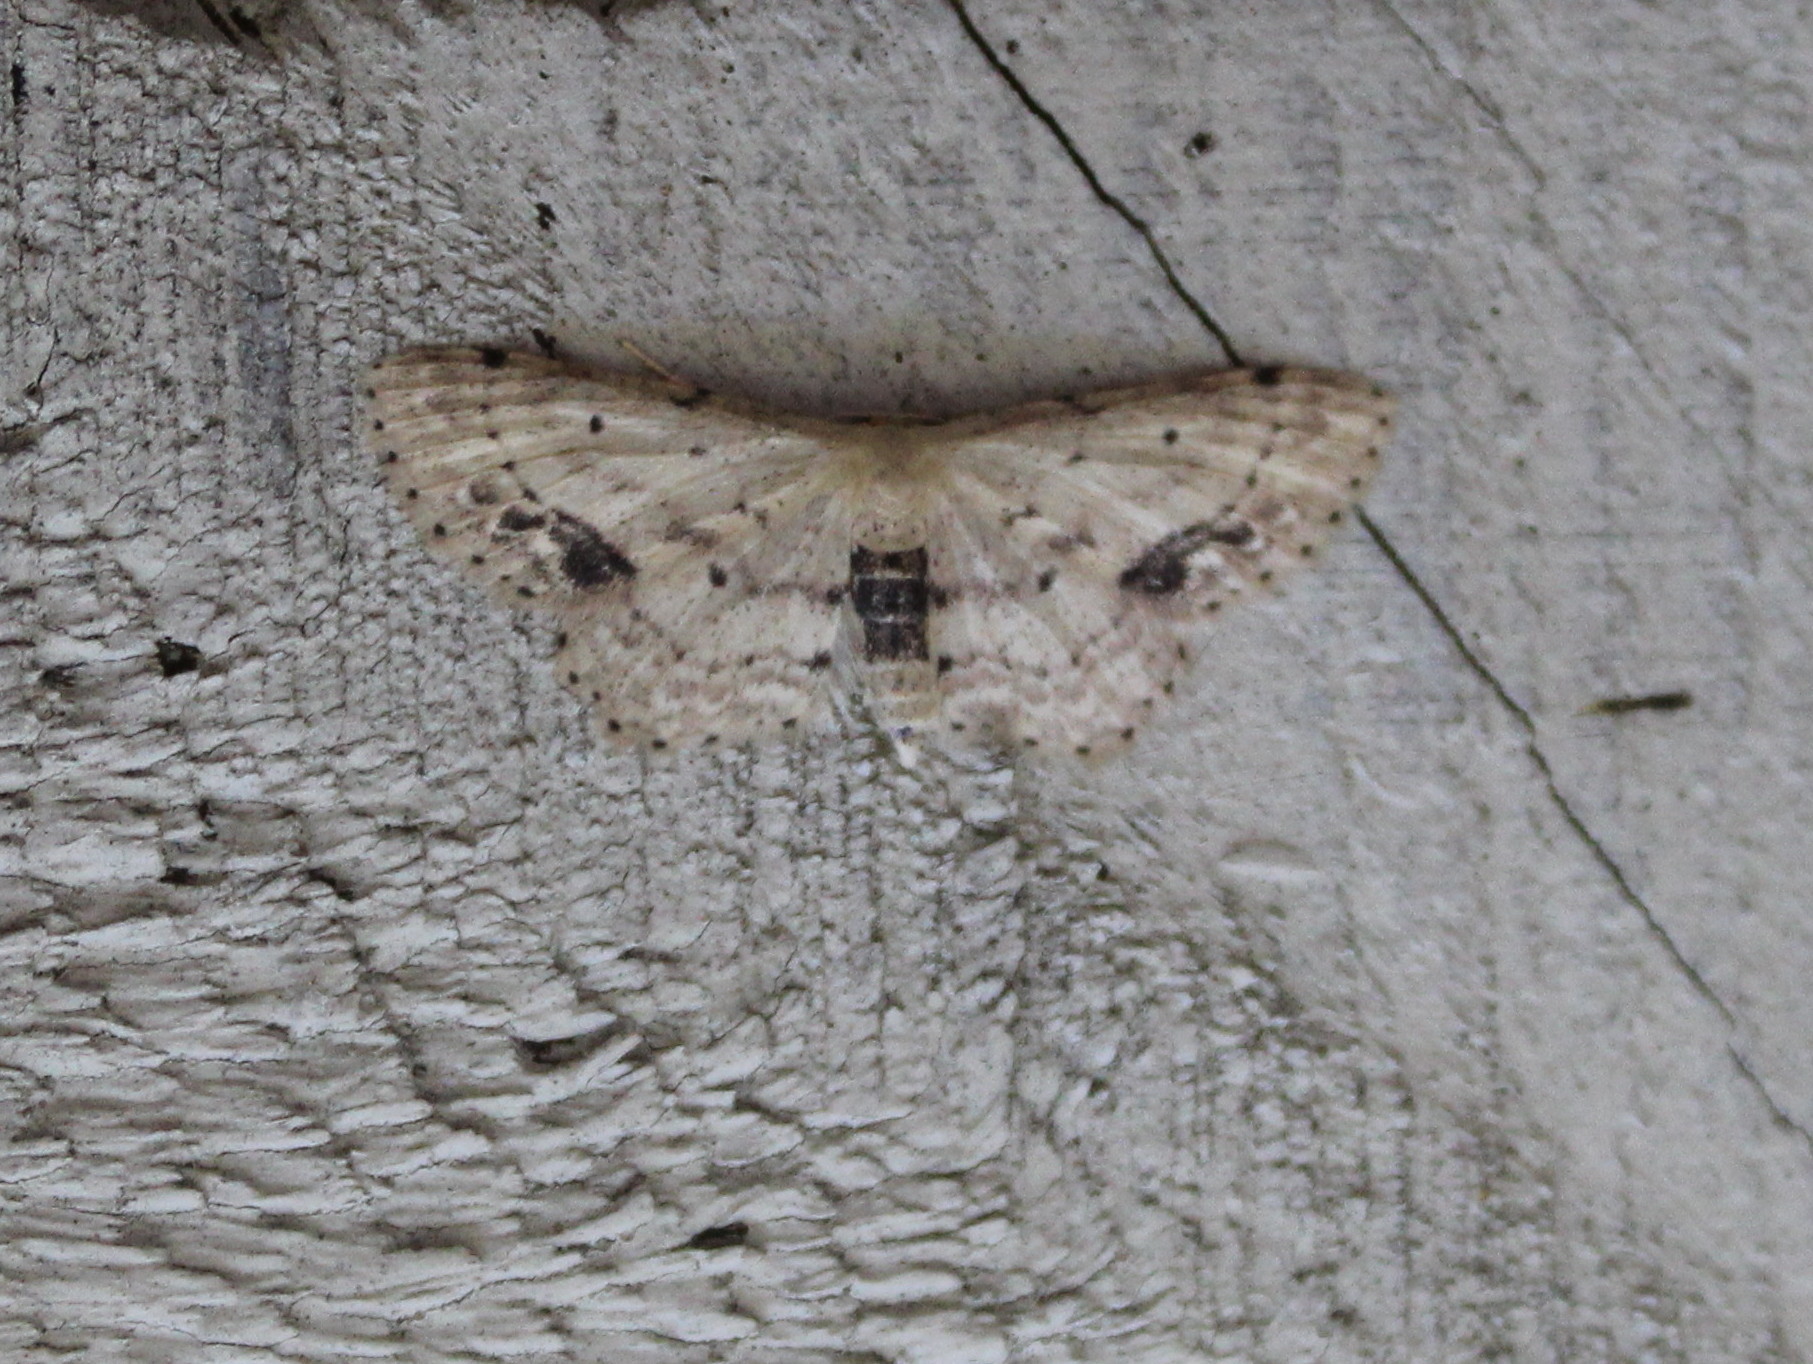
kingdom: Animalia
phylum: Arthropoda
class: Insecta
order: Lepidoptera
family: Geometridae
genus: Idaea
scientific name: Idaea dimidiata
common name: Single-dotted wave
